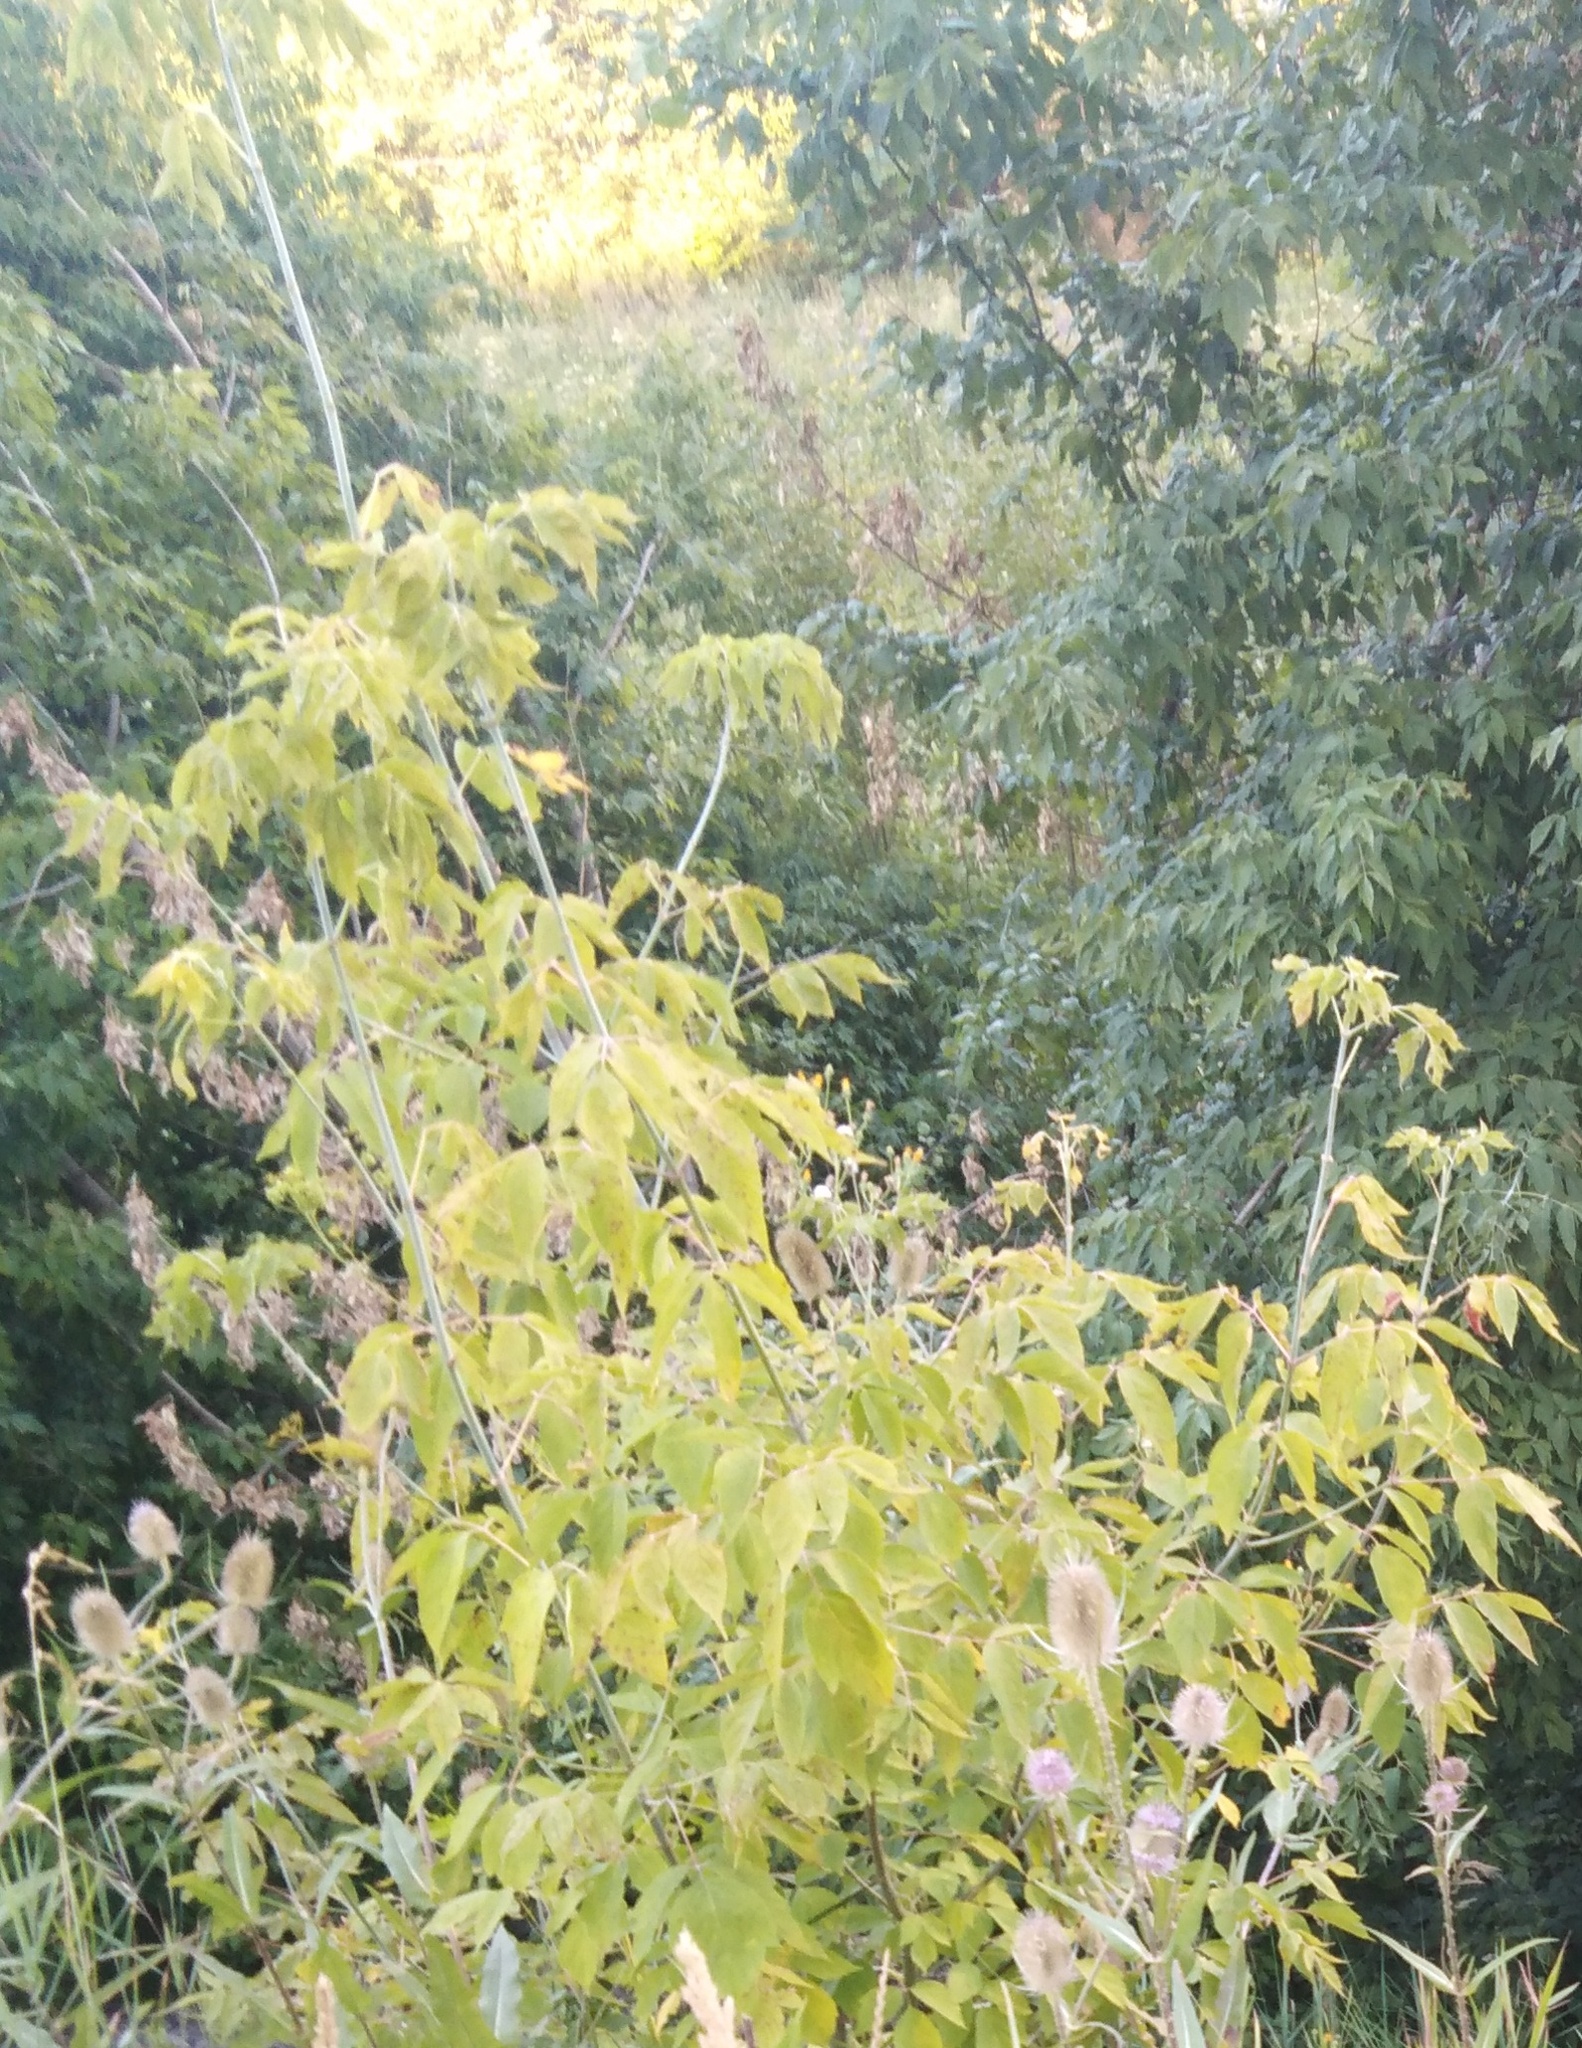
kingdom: Plantae
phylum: Tracheophyta
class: Magnoliopsida
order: Sapindales
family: Sapindaceae
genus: Acer
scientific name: Acer negundo
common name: Ashleaf maple
